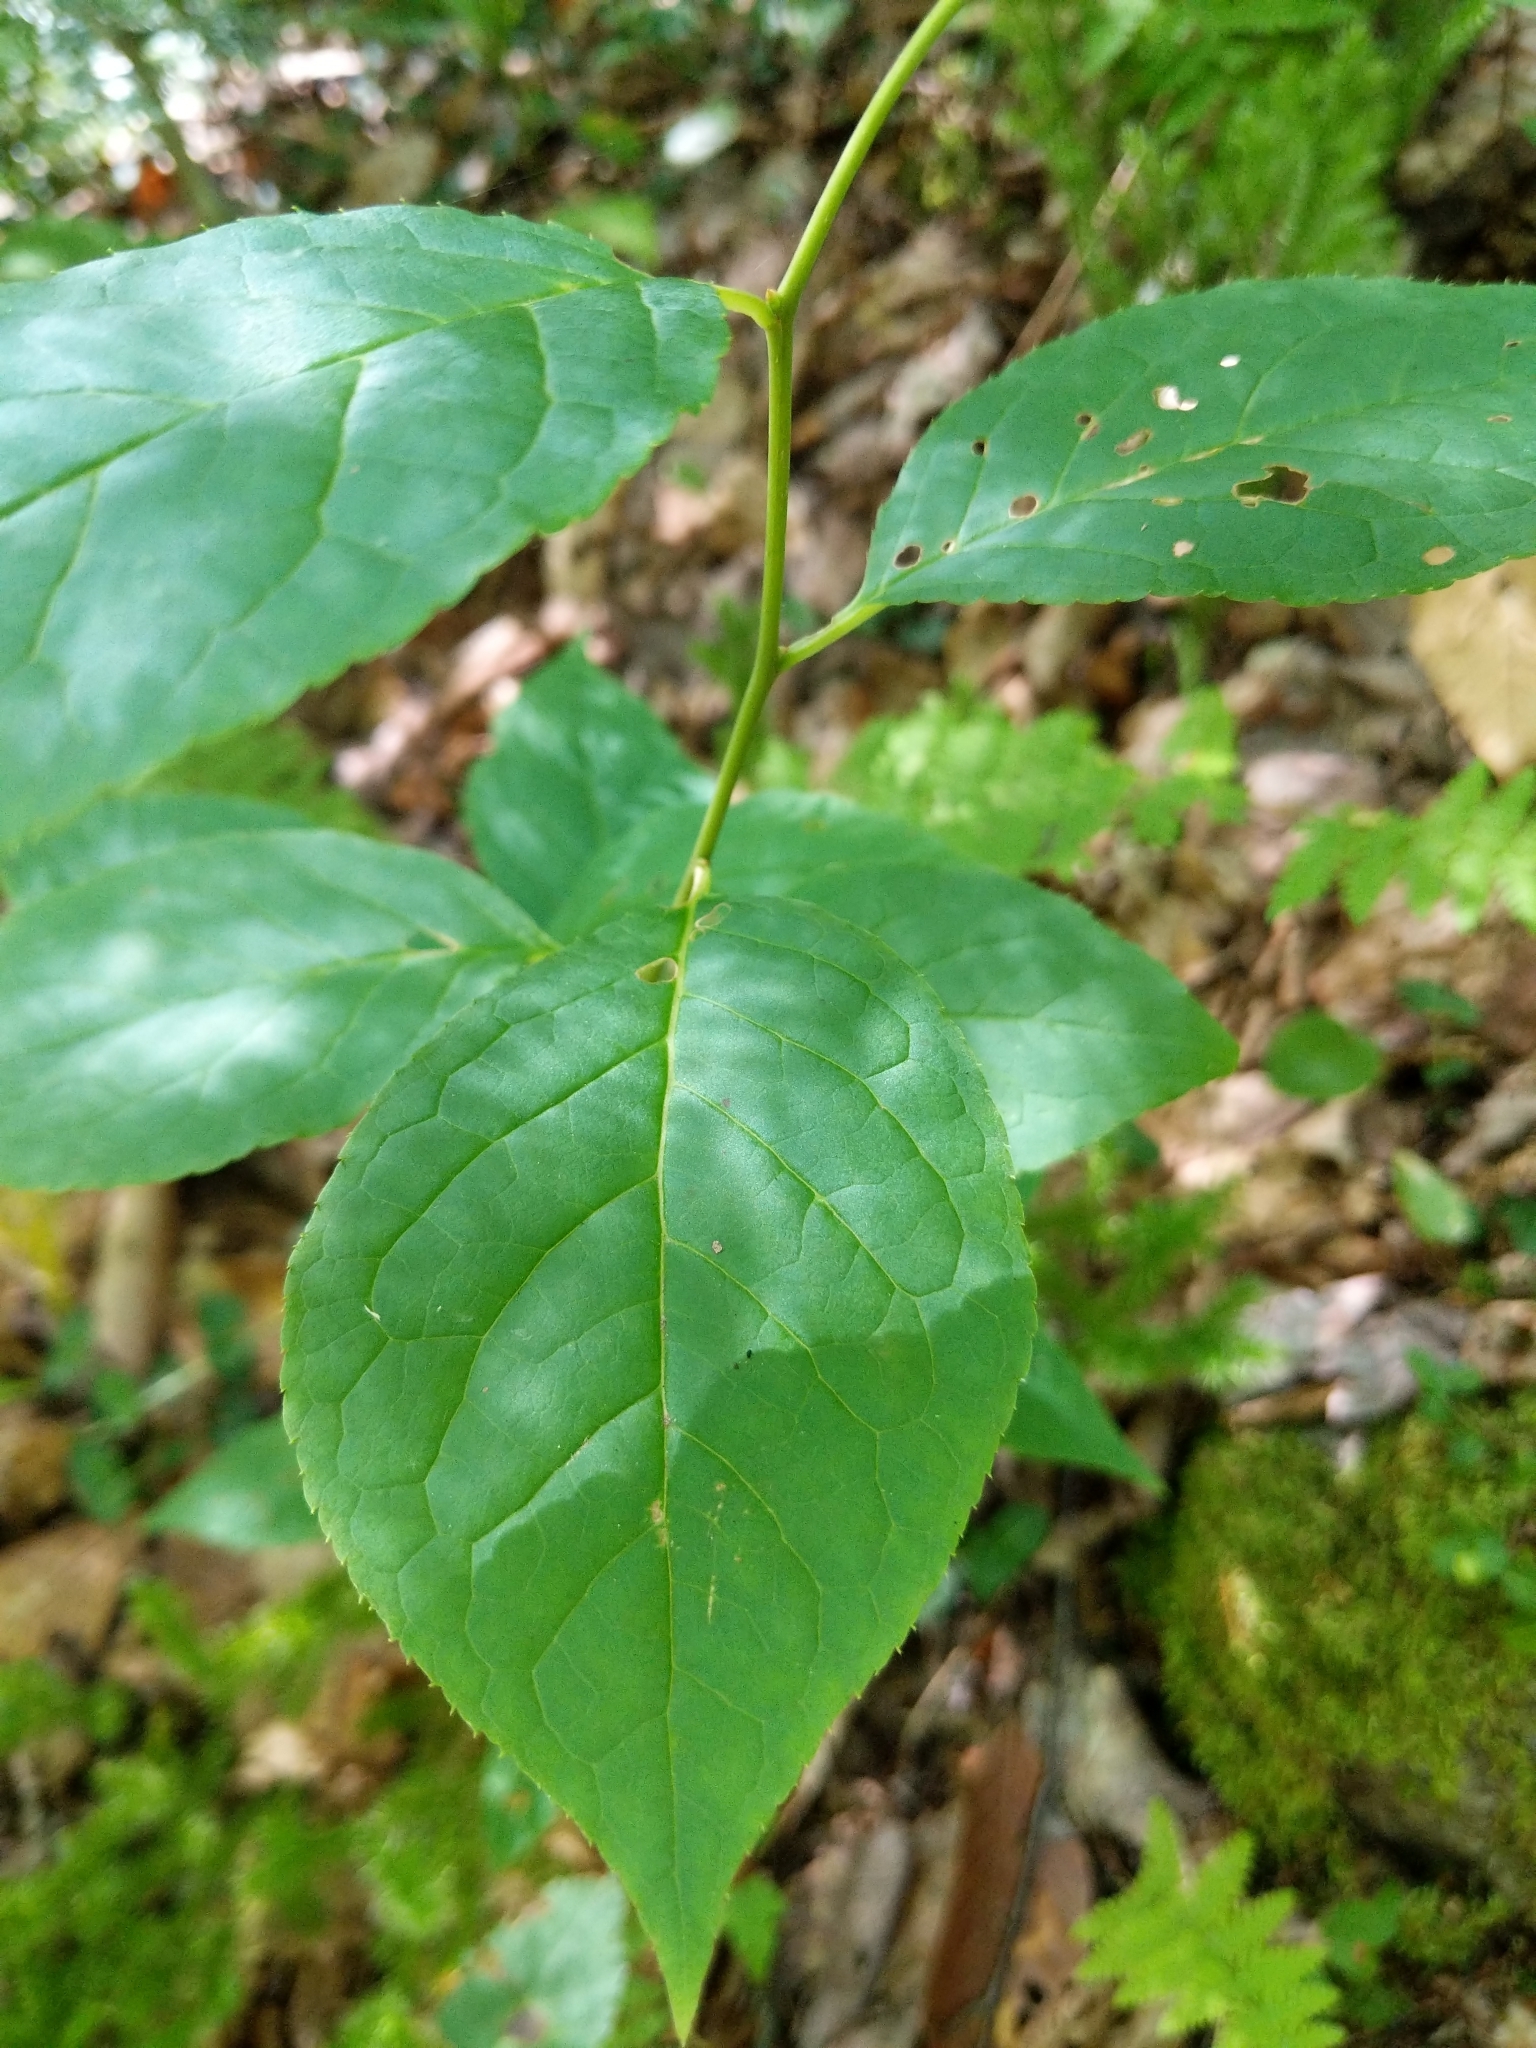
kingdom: Plantae
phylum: Tracheophyta
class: Magnoliopsida
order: Aquifoliales
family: Aquifoliaceae
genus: Ilex
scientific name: Ilex montana
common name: Mountain winterberry
